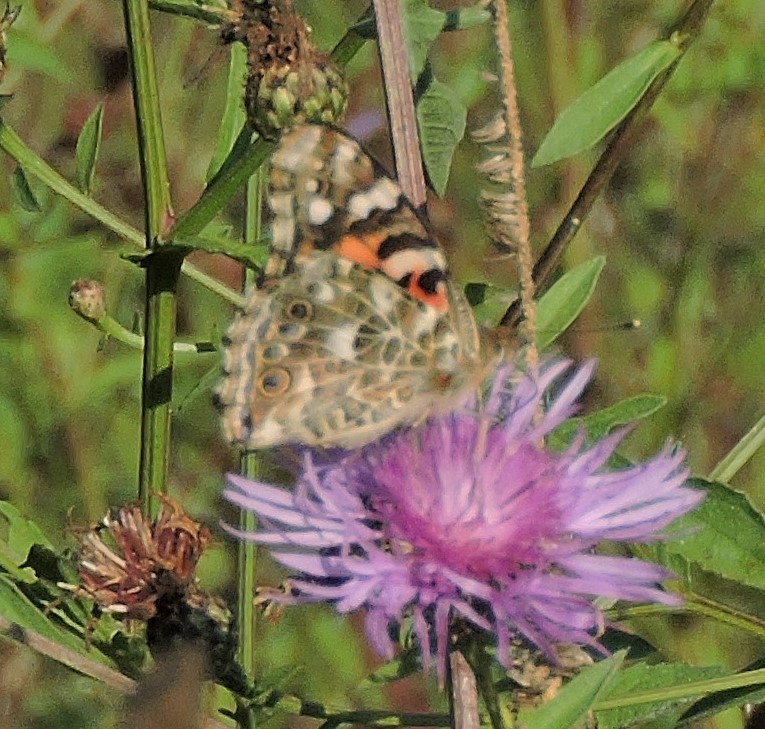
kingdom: Animalia
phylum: Arthropoda
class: Insecta
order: Lepidoptera
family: Nymphalidae
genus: Vanessa
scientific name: Vanessa cardui
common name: Painted lady
